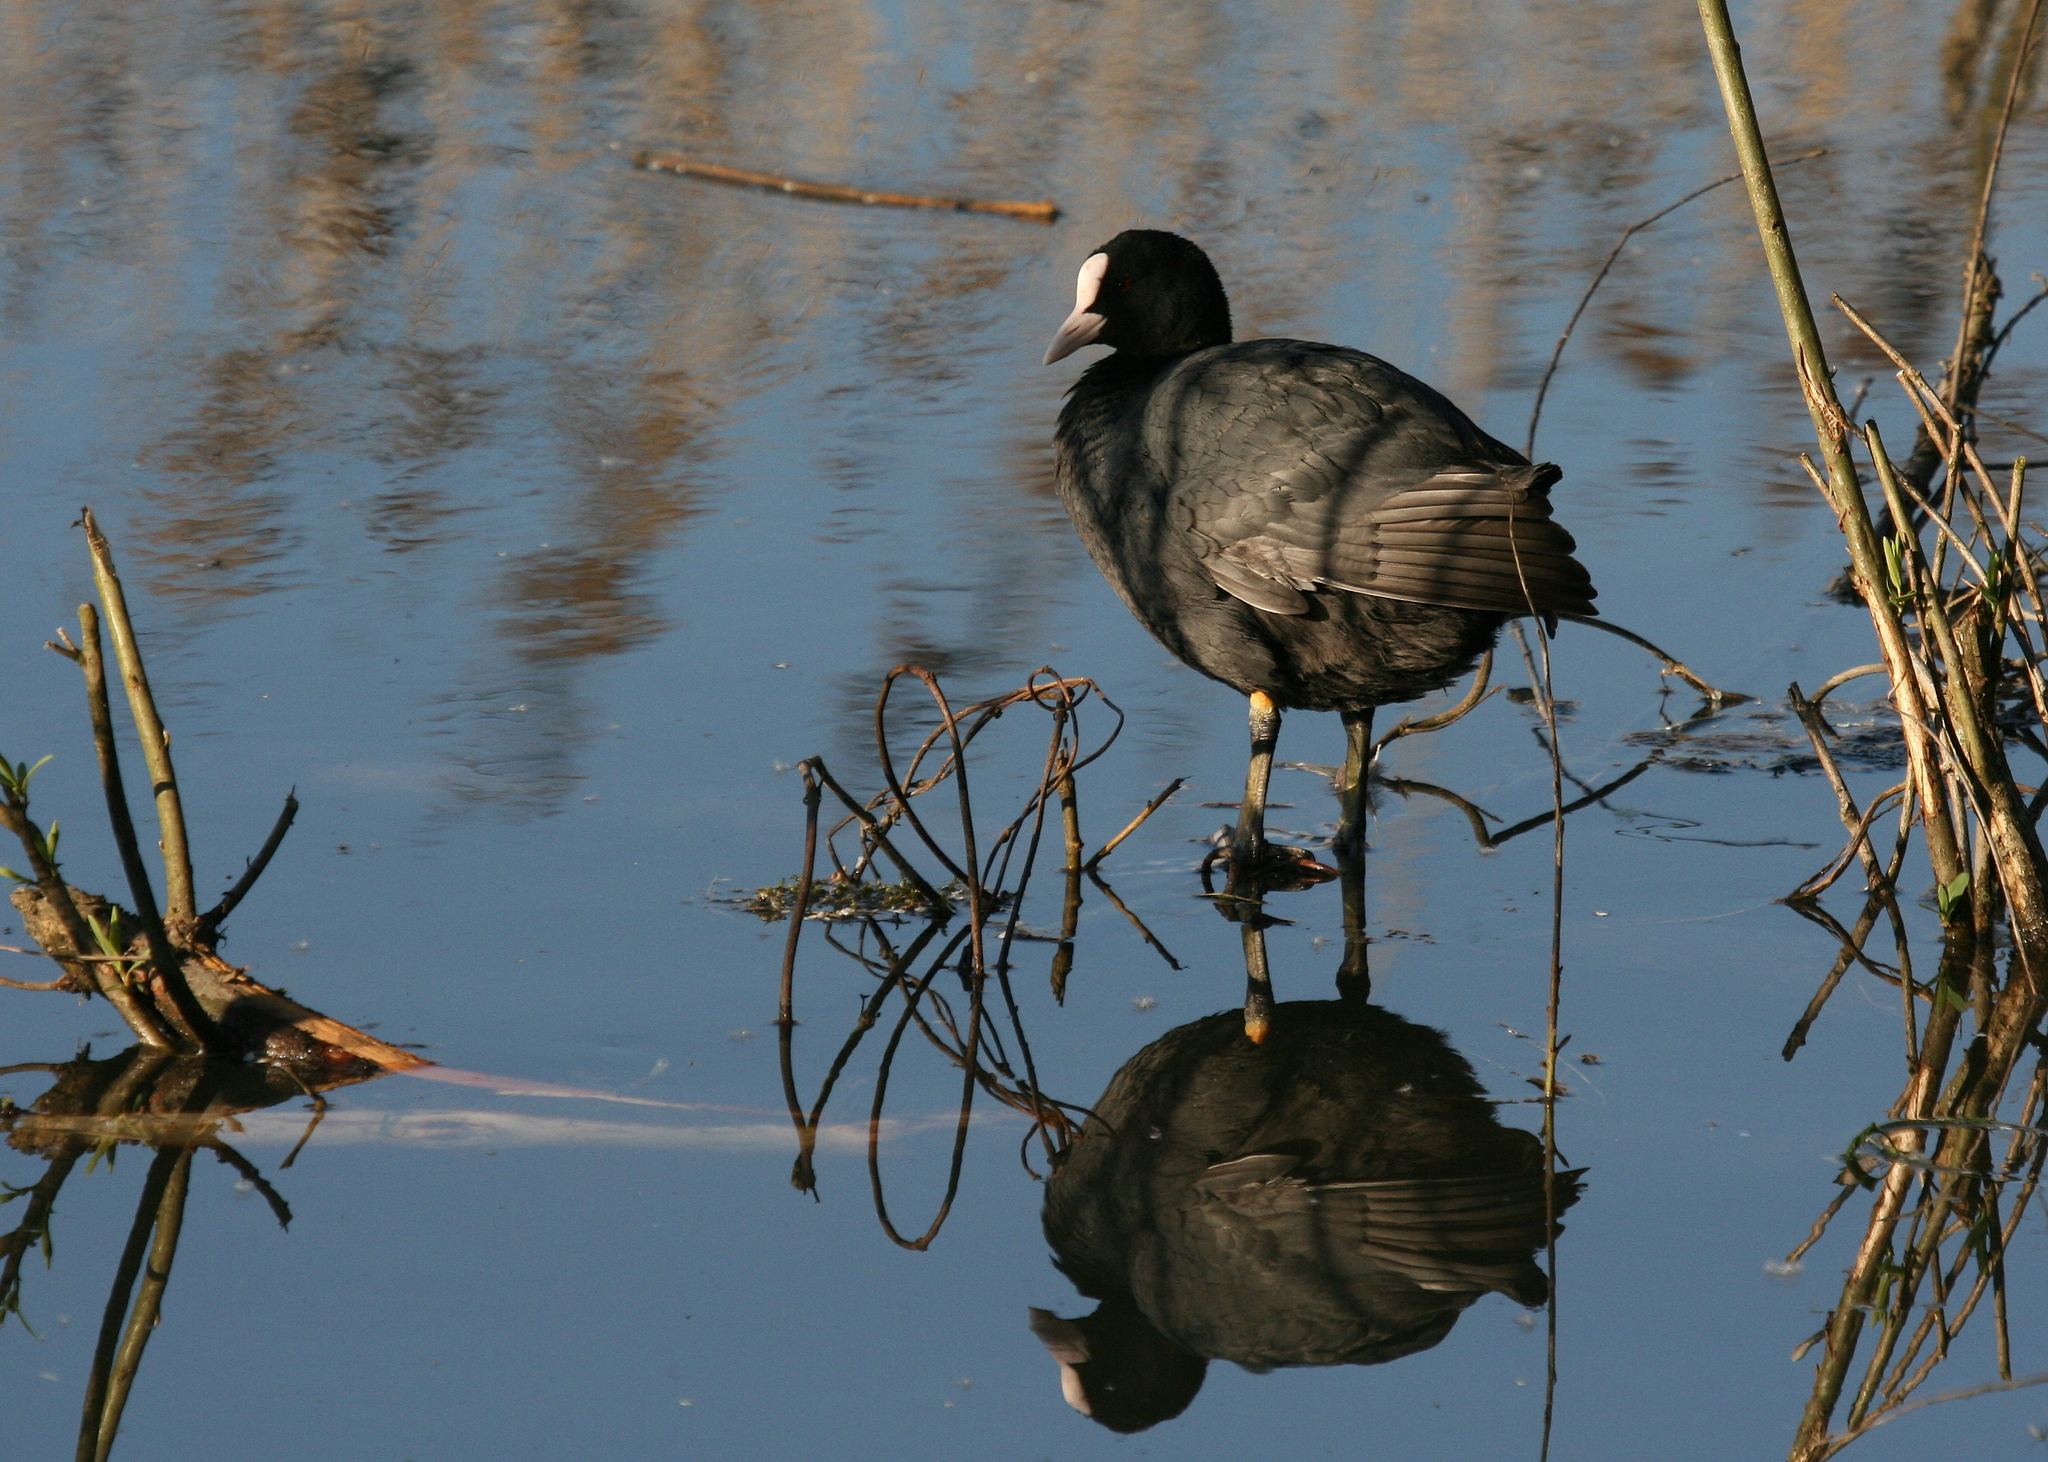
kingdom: Animalia
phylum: Chordata
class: Aves
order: Gruiformes
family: Rallidae
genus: Fulica
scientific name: Fulica atra
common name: Eurasian coot
